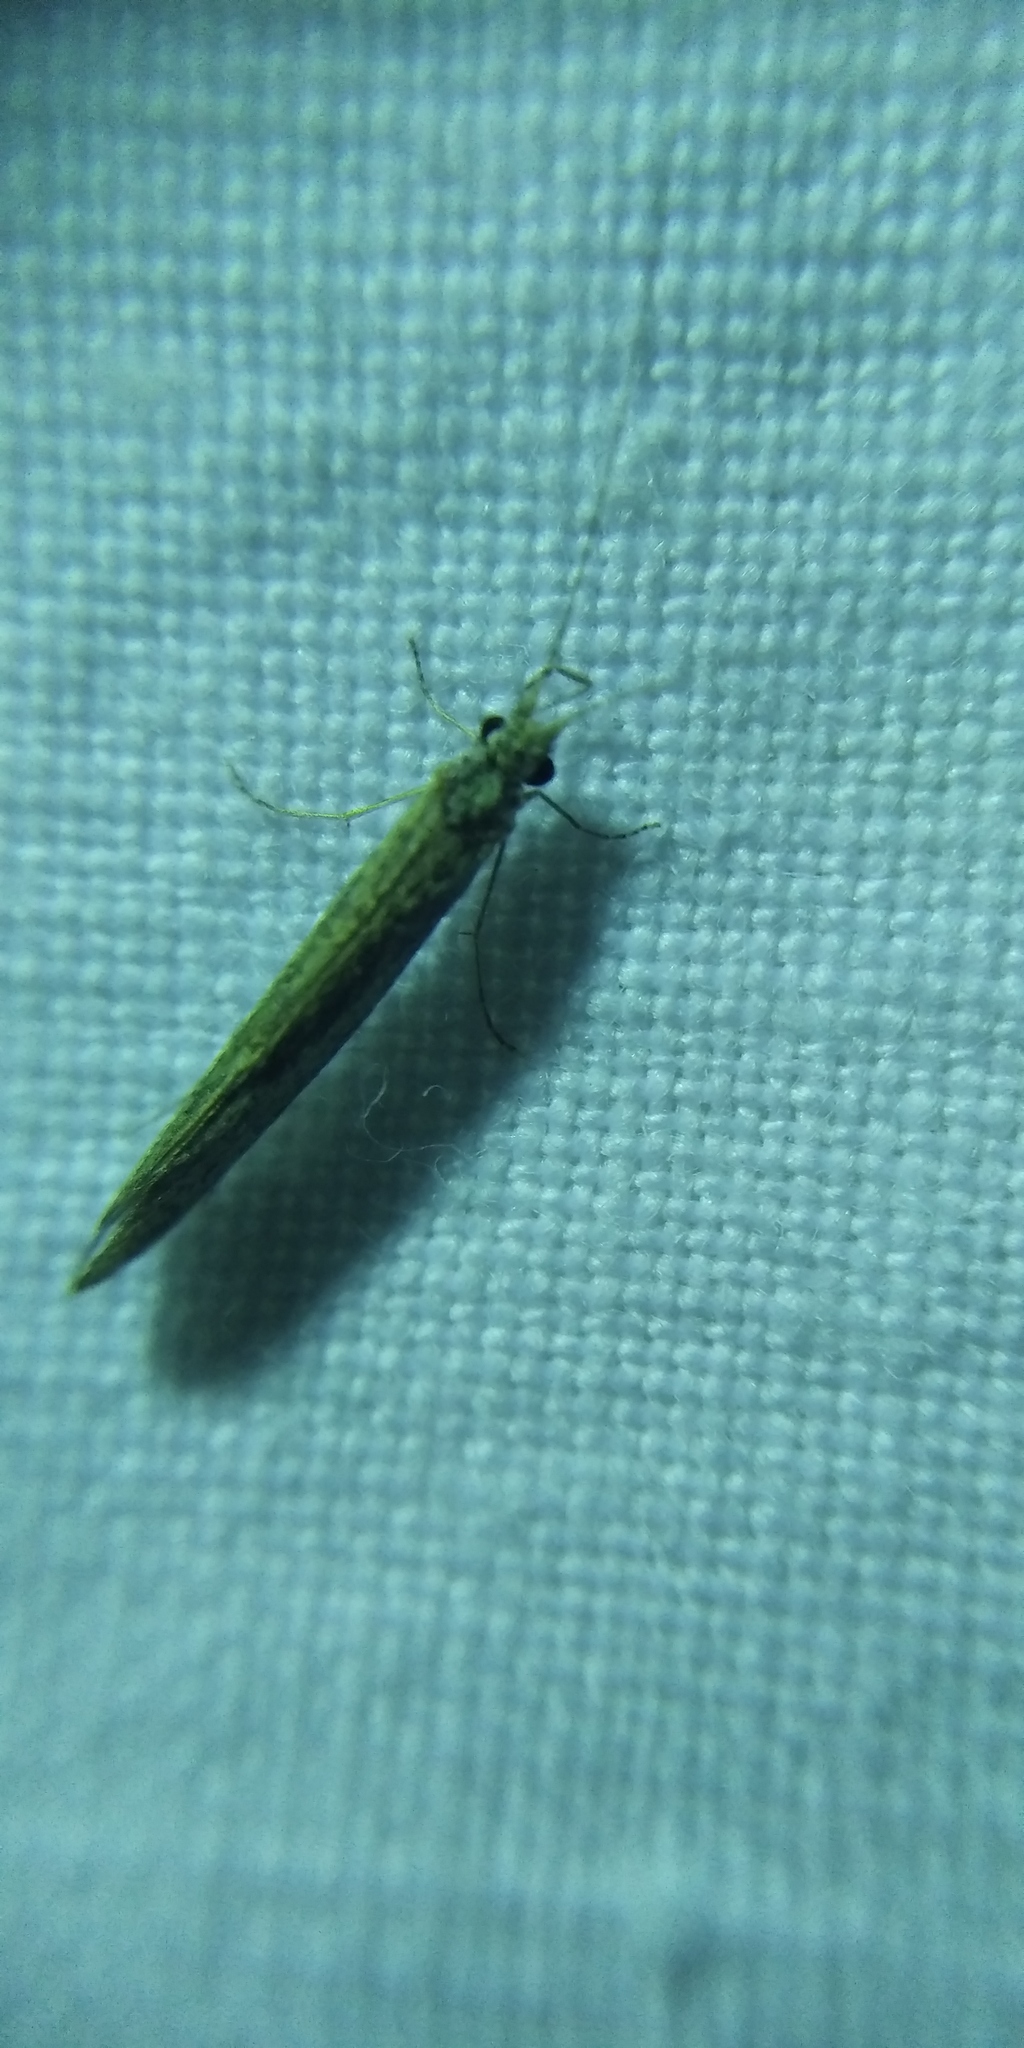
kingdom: Animalia
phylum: Arthropoda
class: Insecta
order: Trichoptera
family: Leptoceridae
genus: Leptocerus
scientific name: Leptocerus tineiformis
